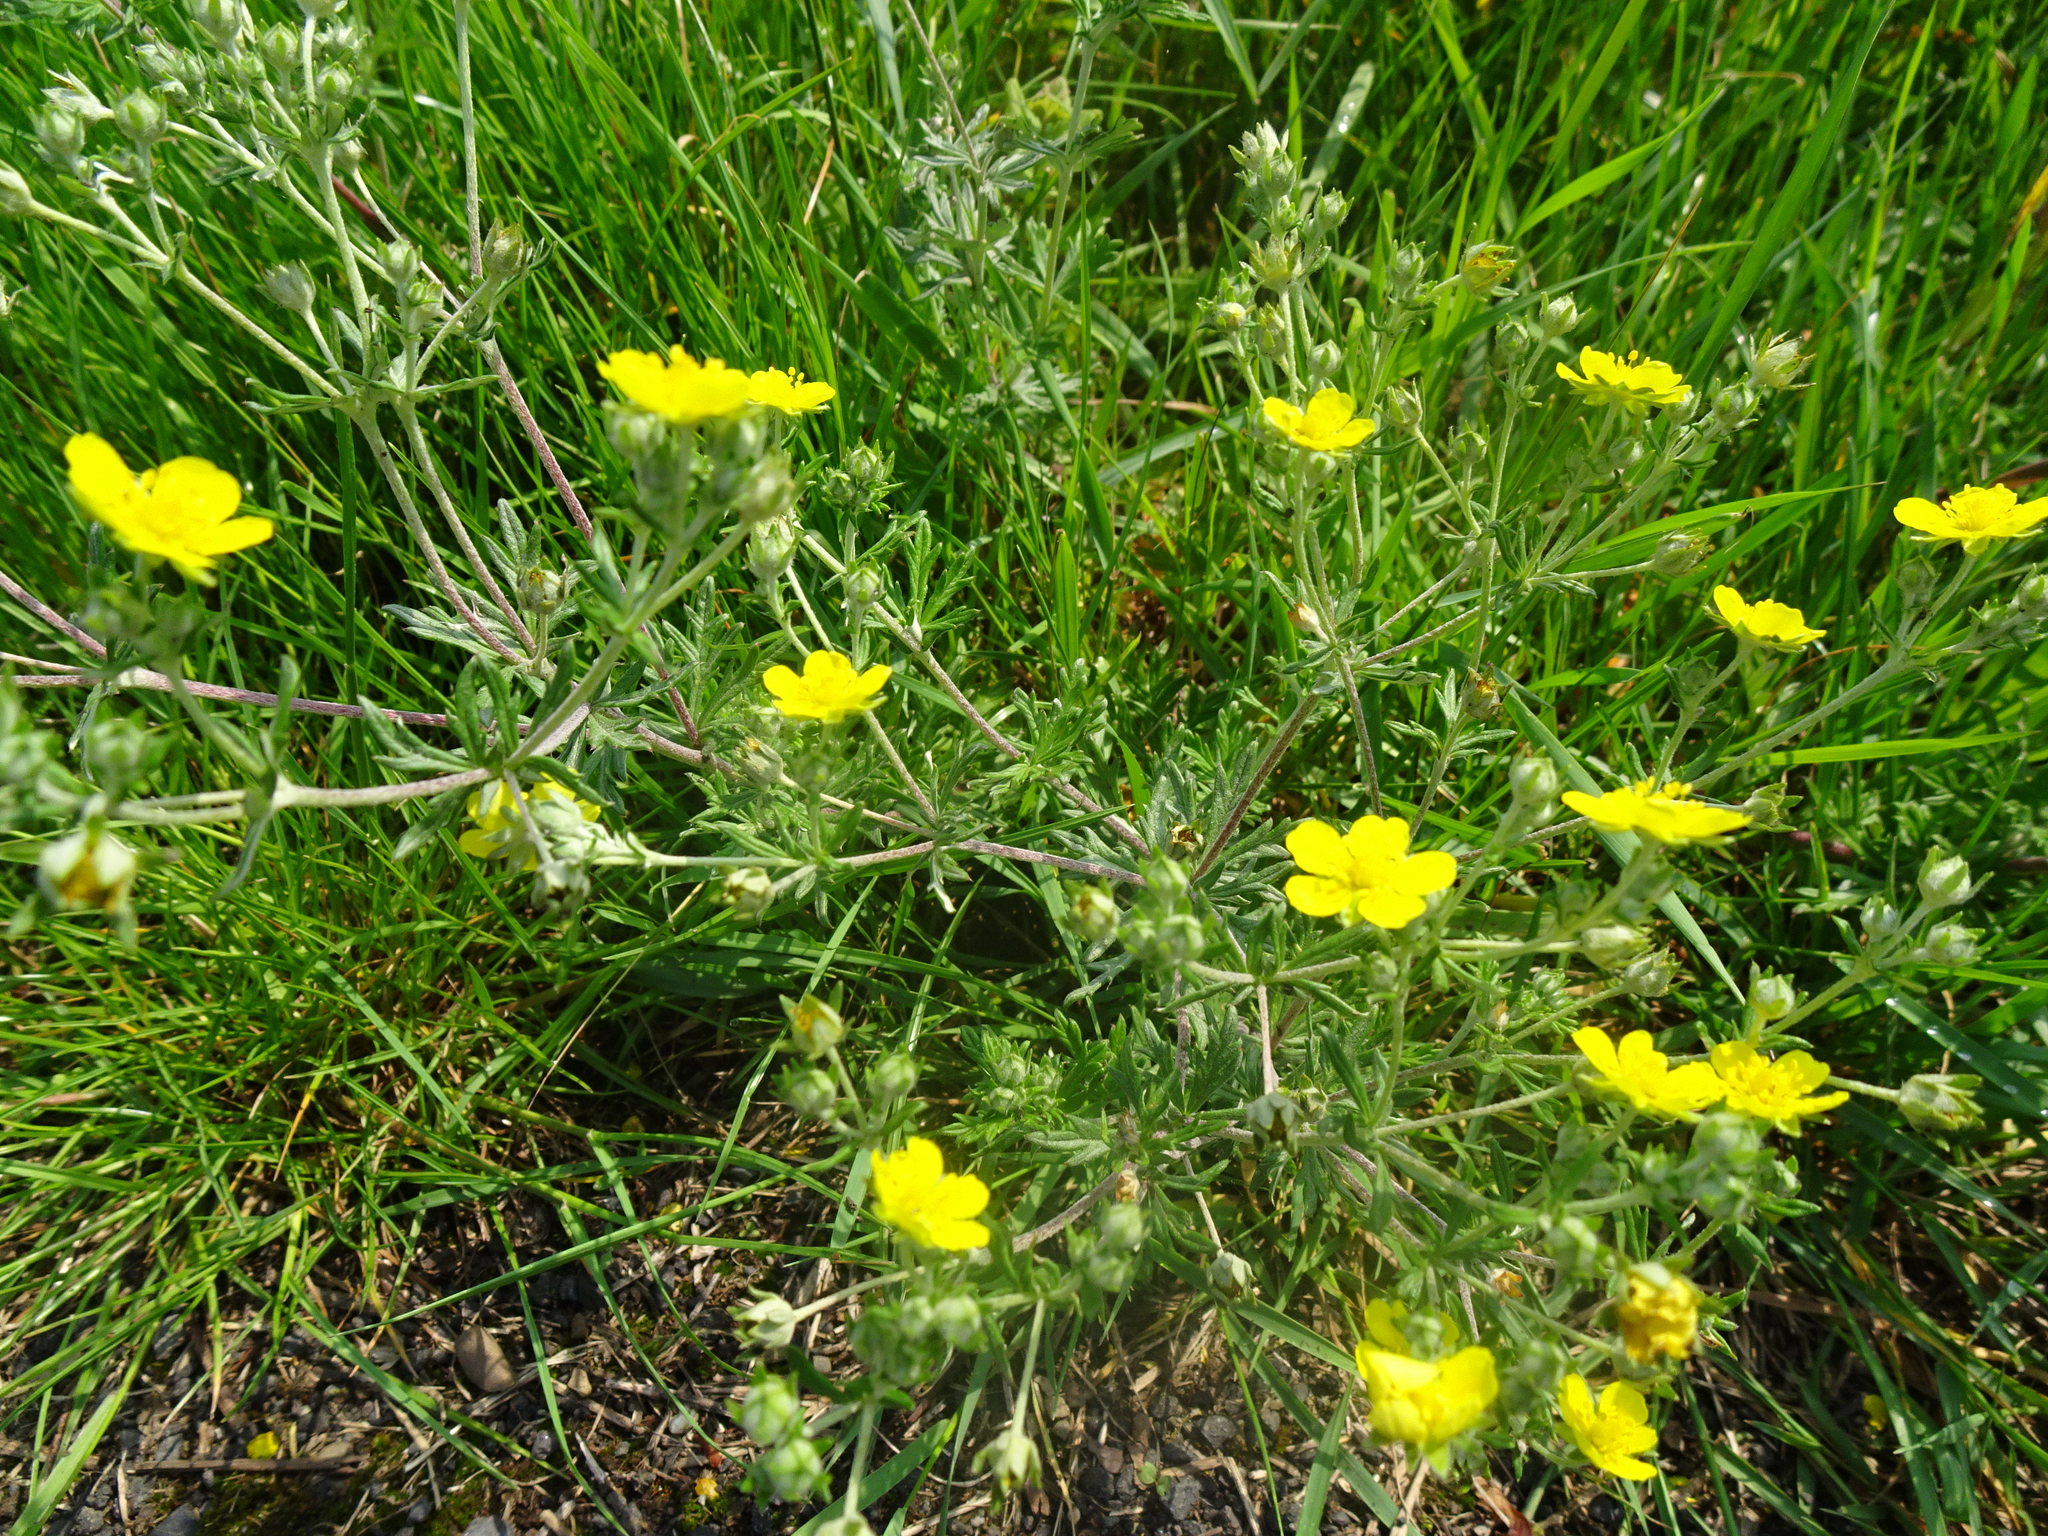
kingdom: Plantae
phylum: Tracheophyta
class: Magnoliopsida
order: Rosales
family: Rosaceae
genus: Potentilla
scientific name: Potentilla argentea
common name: Hoary cinquefoil
